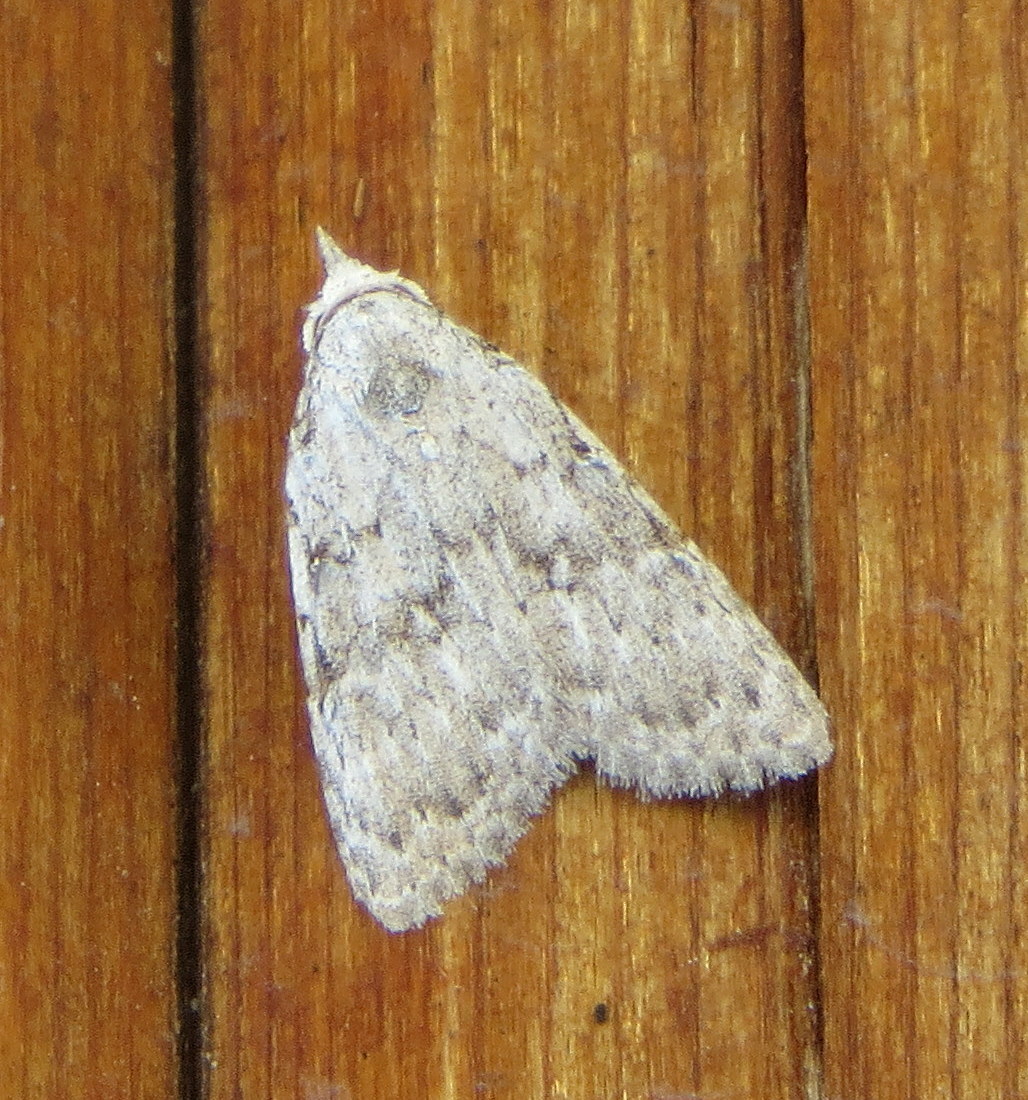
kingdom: Animalia
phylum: Arthropoda
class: Insecta
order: Lepidoptera
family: Nolidae
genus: Nola
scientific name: Nola clethrae
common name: Sweet pepperbush nola moth
